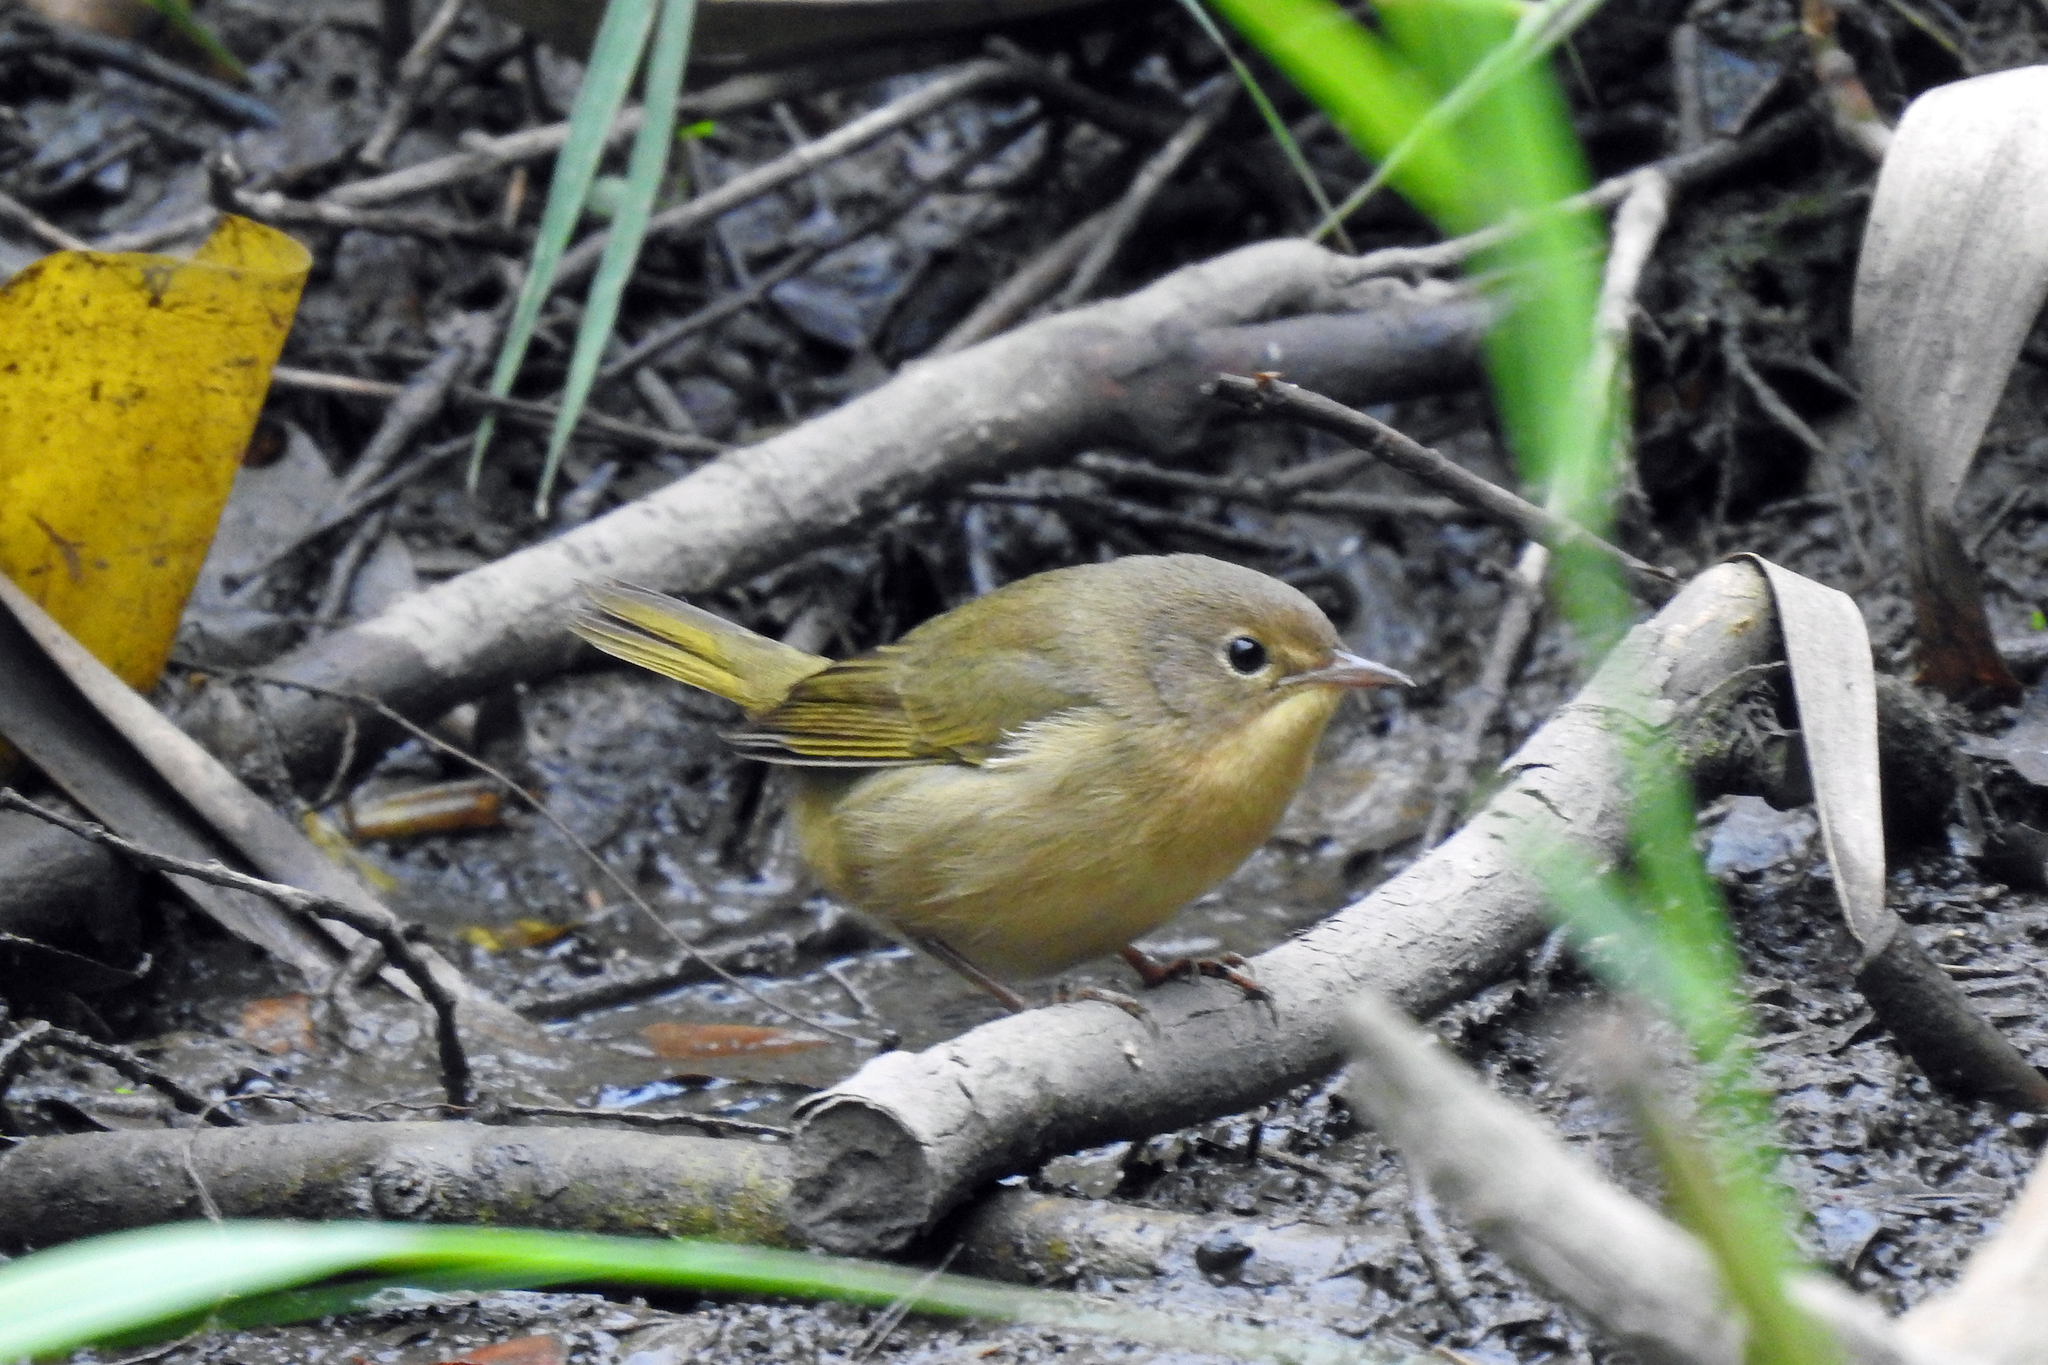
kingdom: Animalia
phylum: Chordata
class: Aves
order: Passeriformes
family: Parulidae
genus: Geothlypis
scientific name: Geothlypis trichas
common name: Common yellowthroat
